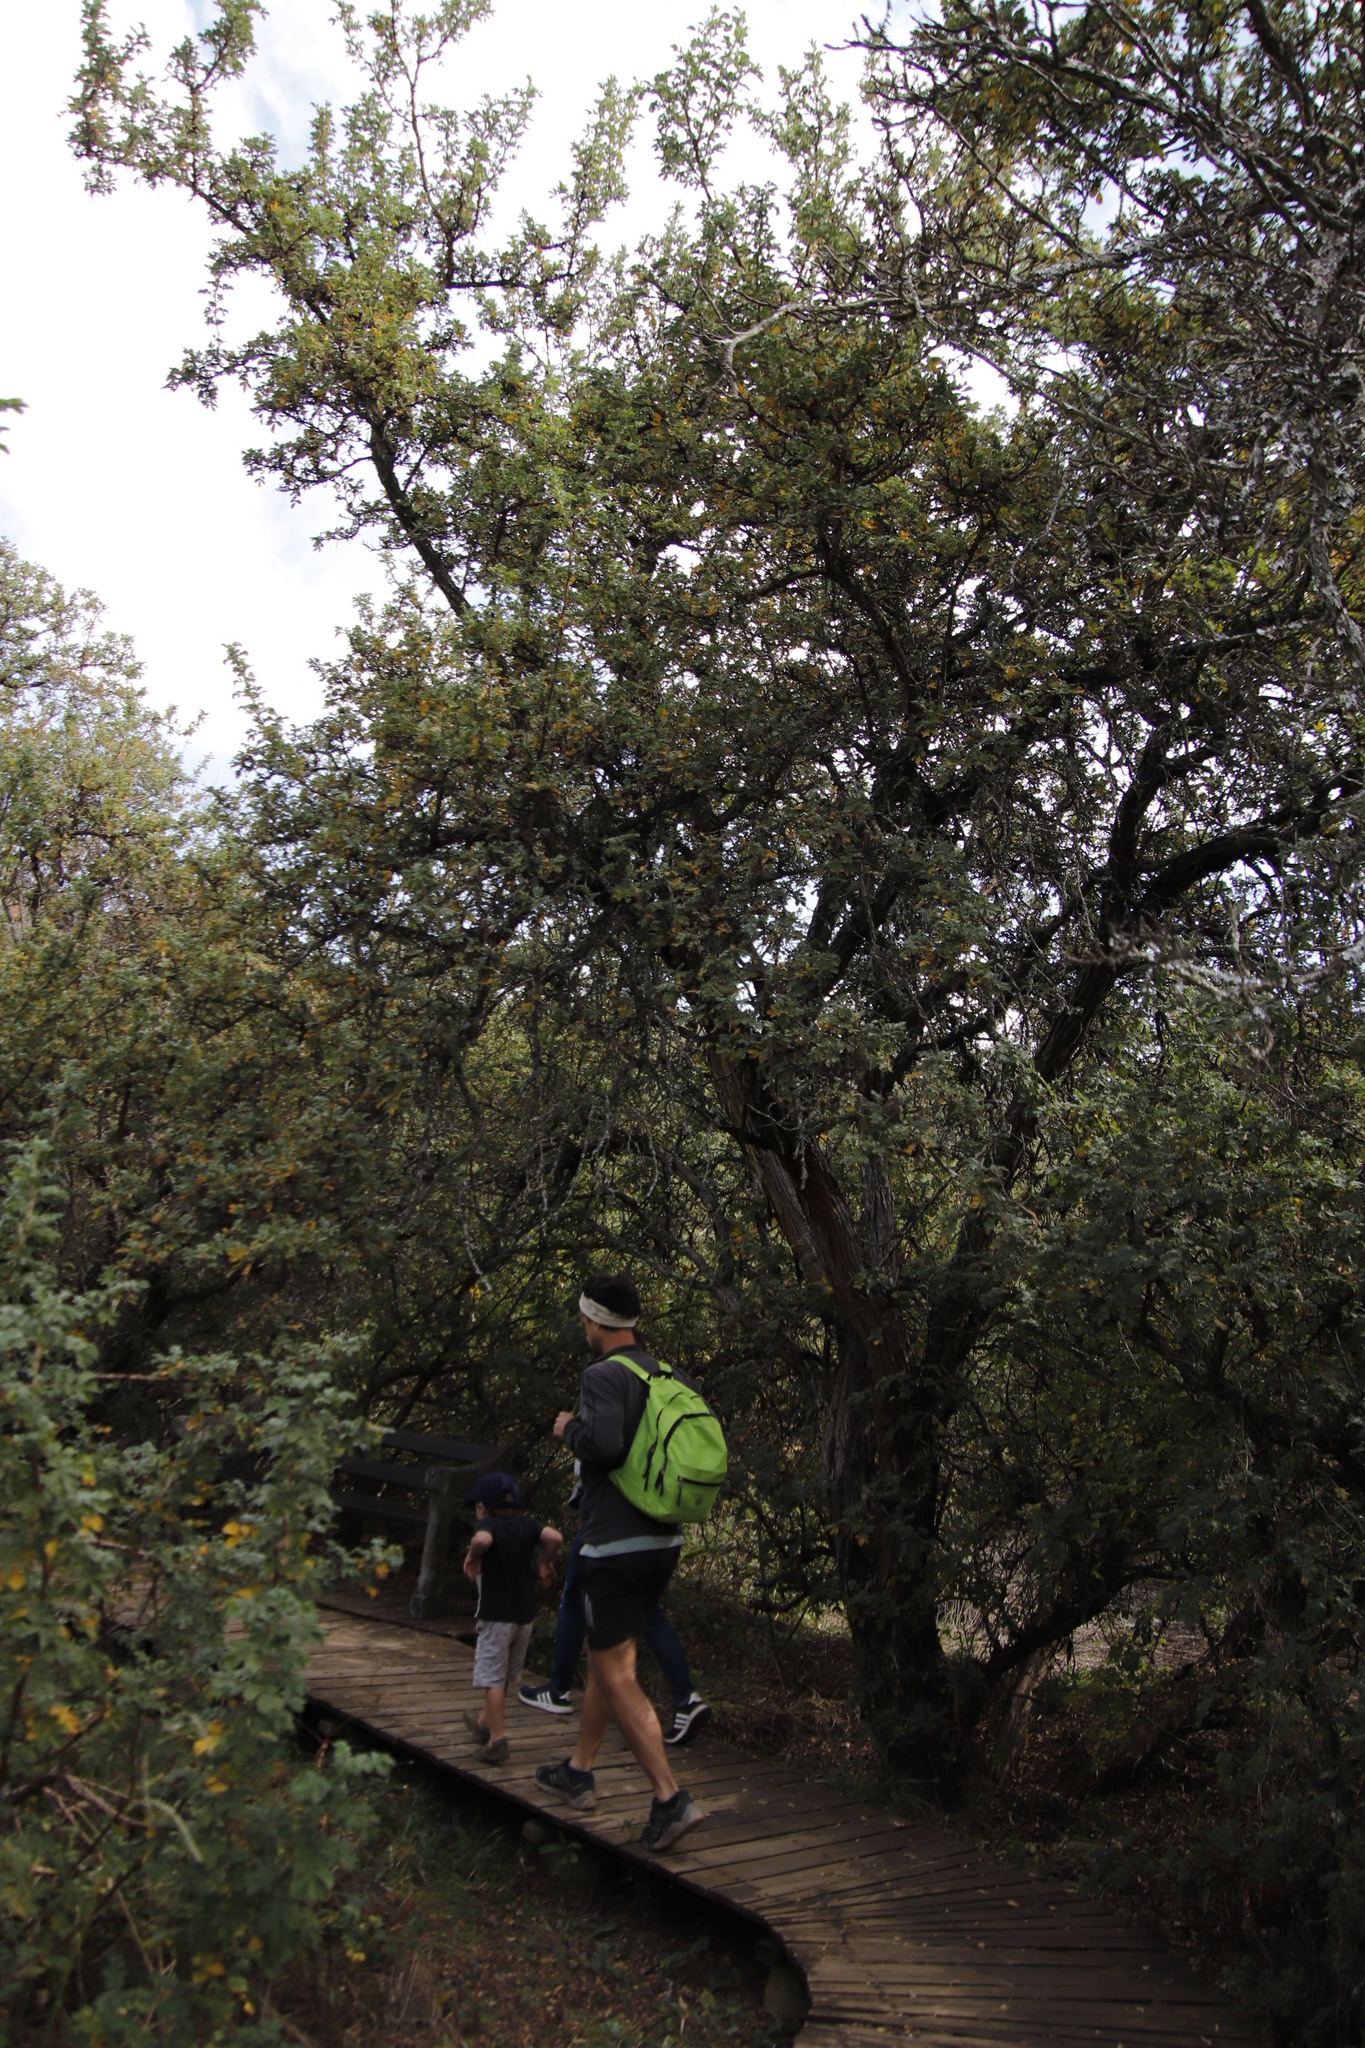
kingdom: Plantae
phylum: Tracheophyta
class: Magnoliopsida
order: Rosales
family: Rosaceae
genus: Leucosidea
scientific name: Leucosidea sericea
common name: Oldwood
